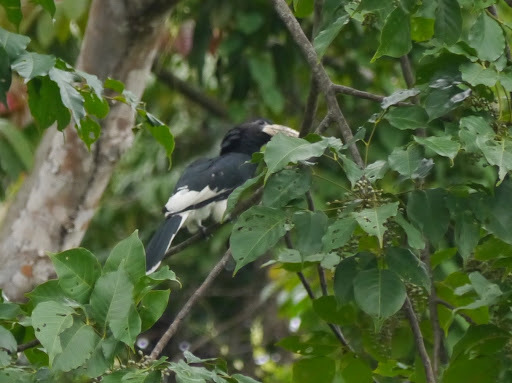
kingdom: Animalia
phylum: Chordata
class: Aves
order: Bucerotiformes
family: Bucerotidae
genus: Bycanistes
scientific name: Bycanistes fistulator
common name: Piping hornbill
